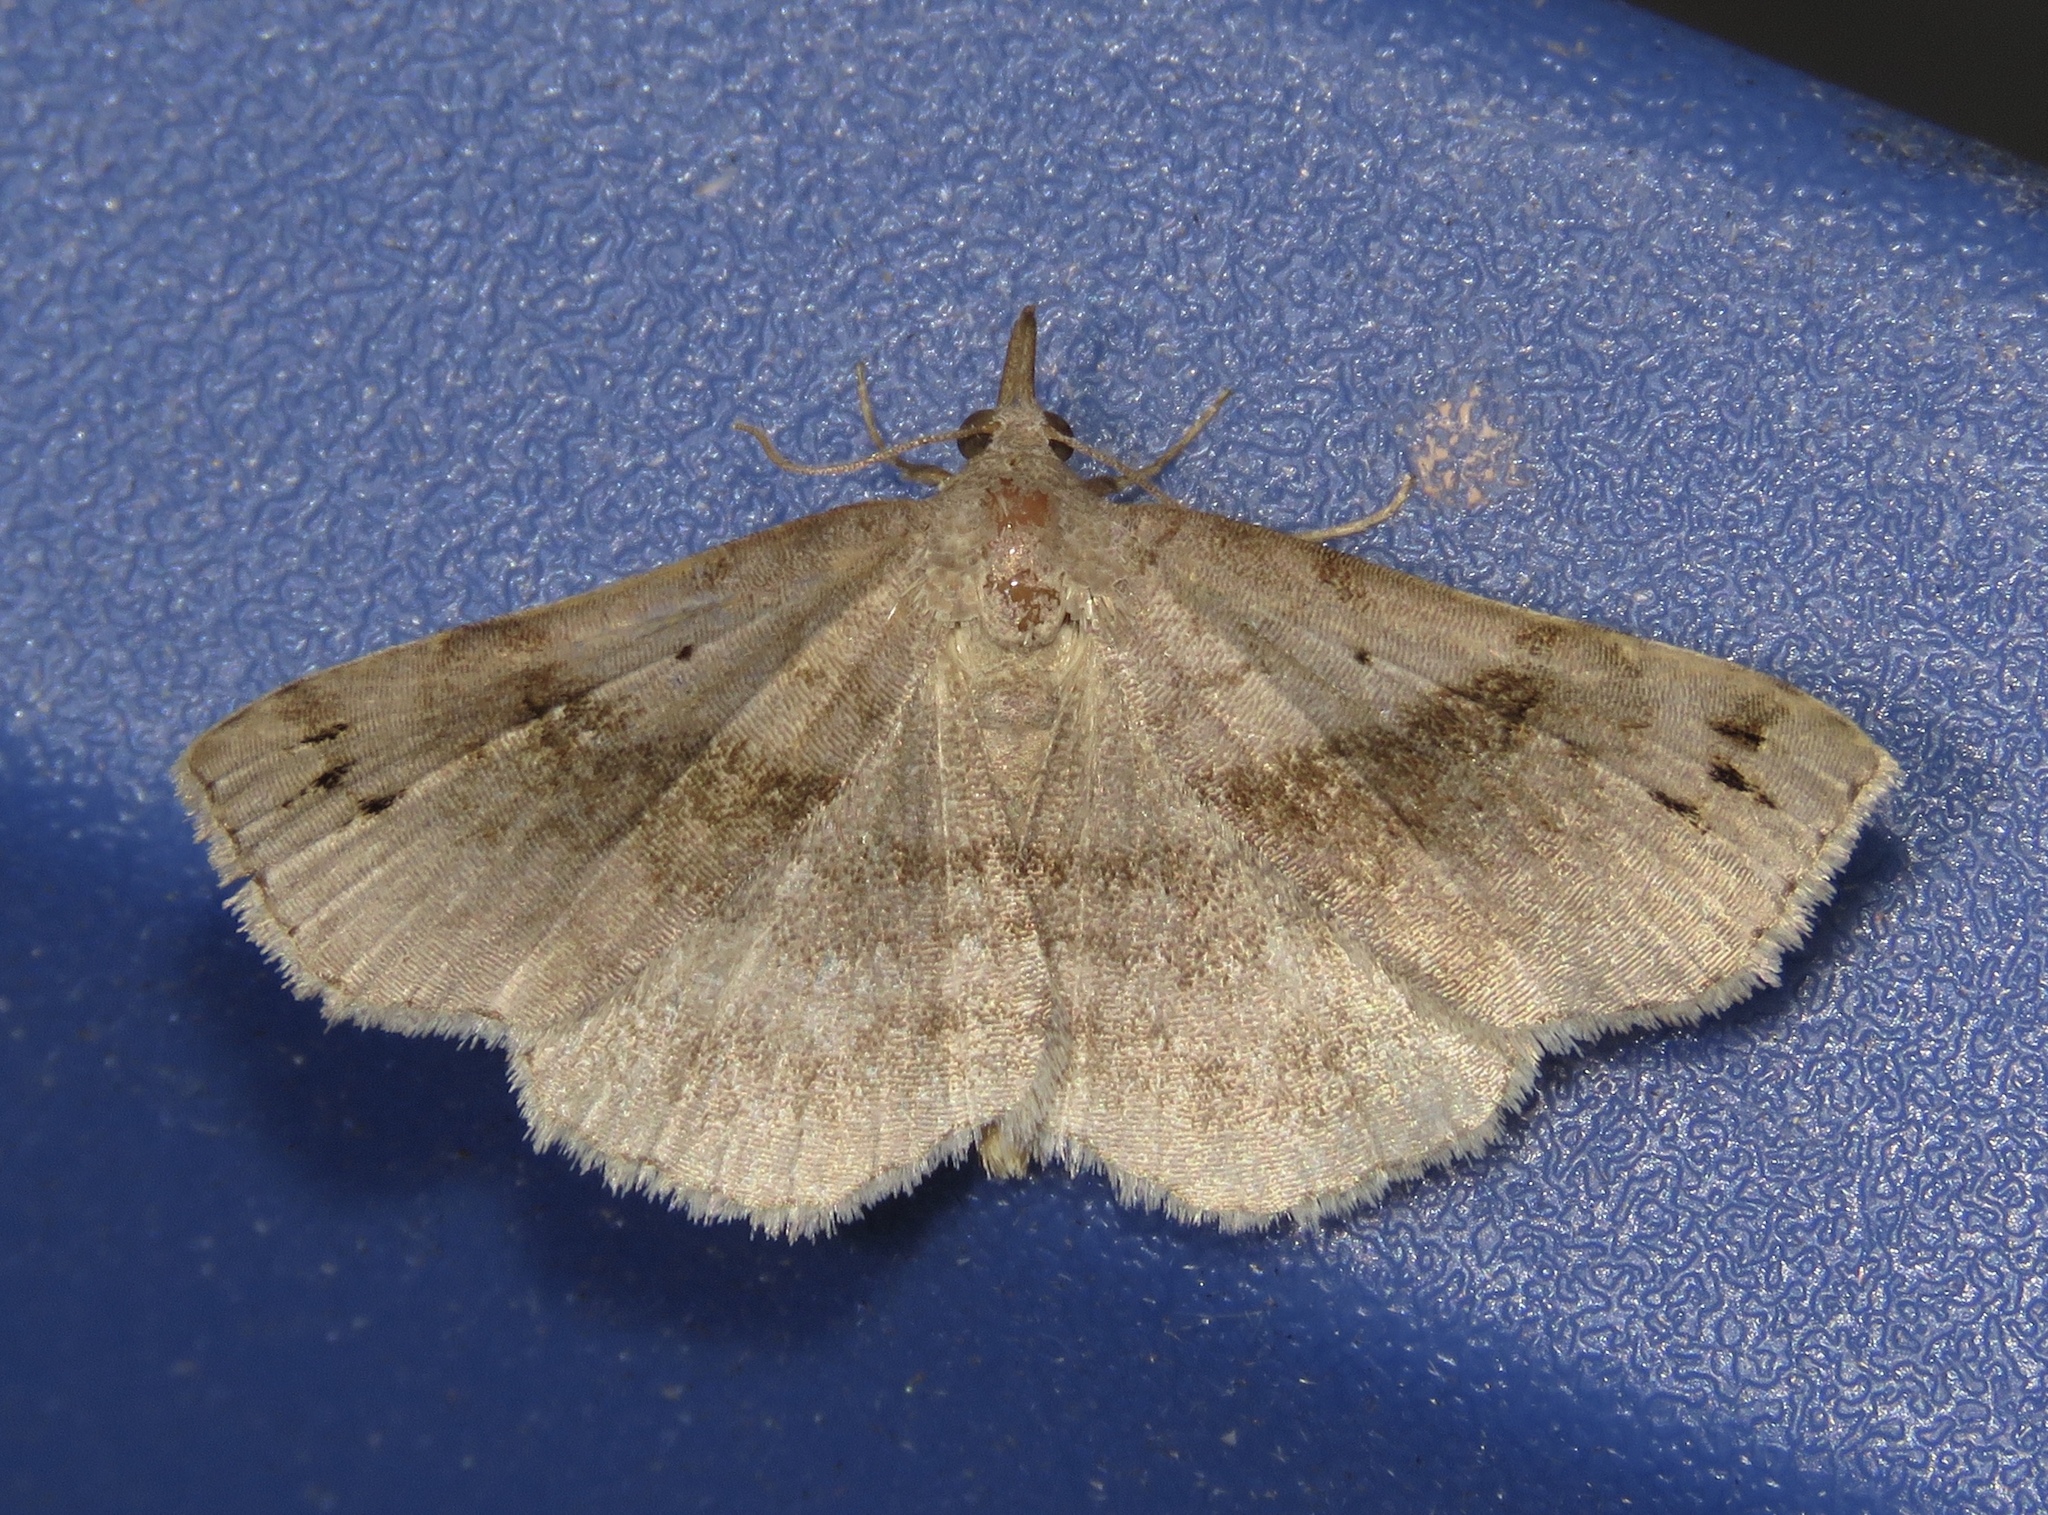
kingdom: Animalia
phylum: Arthropoda
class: Insecta
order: Lepidoptera
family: Erebidae
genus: Spargaloma
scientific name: Spargaloma sexpunctata
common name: Six-spotted gray
